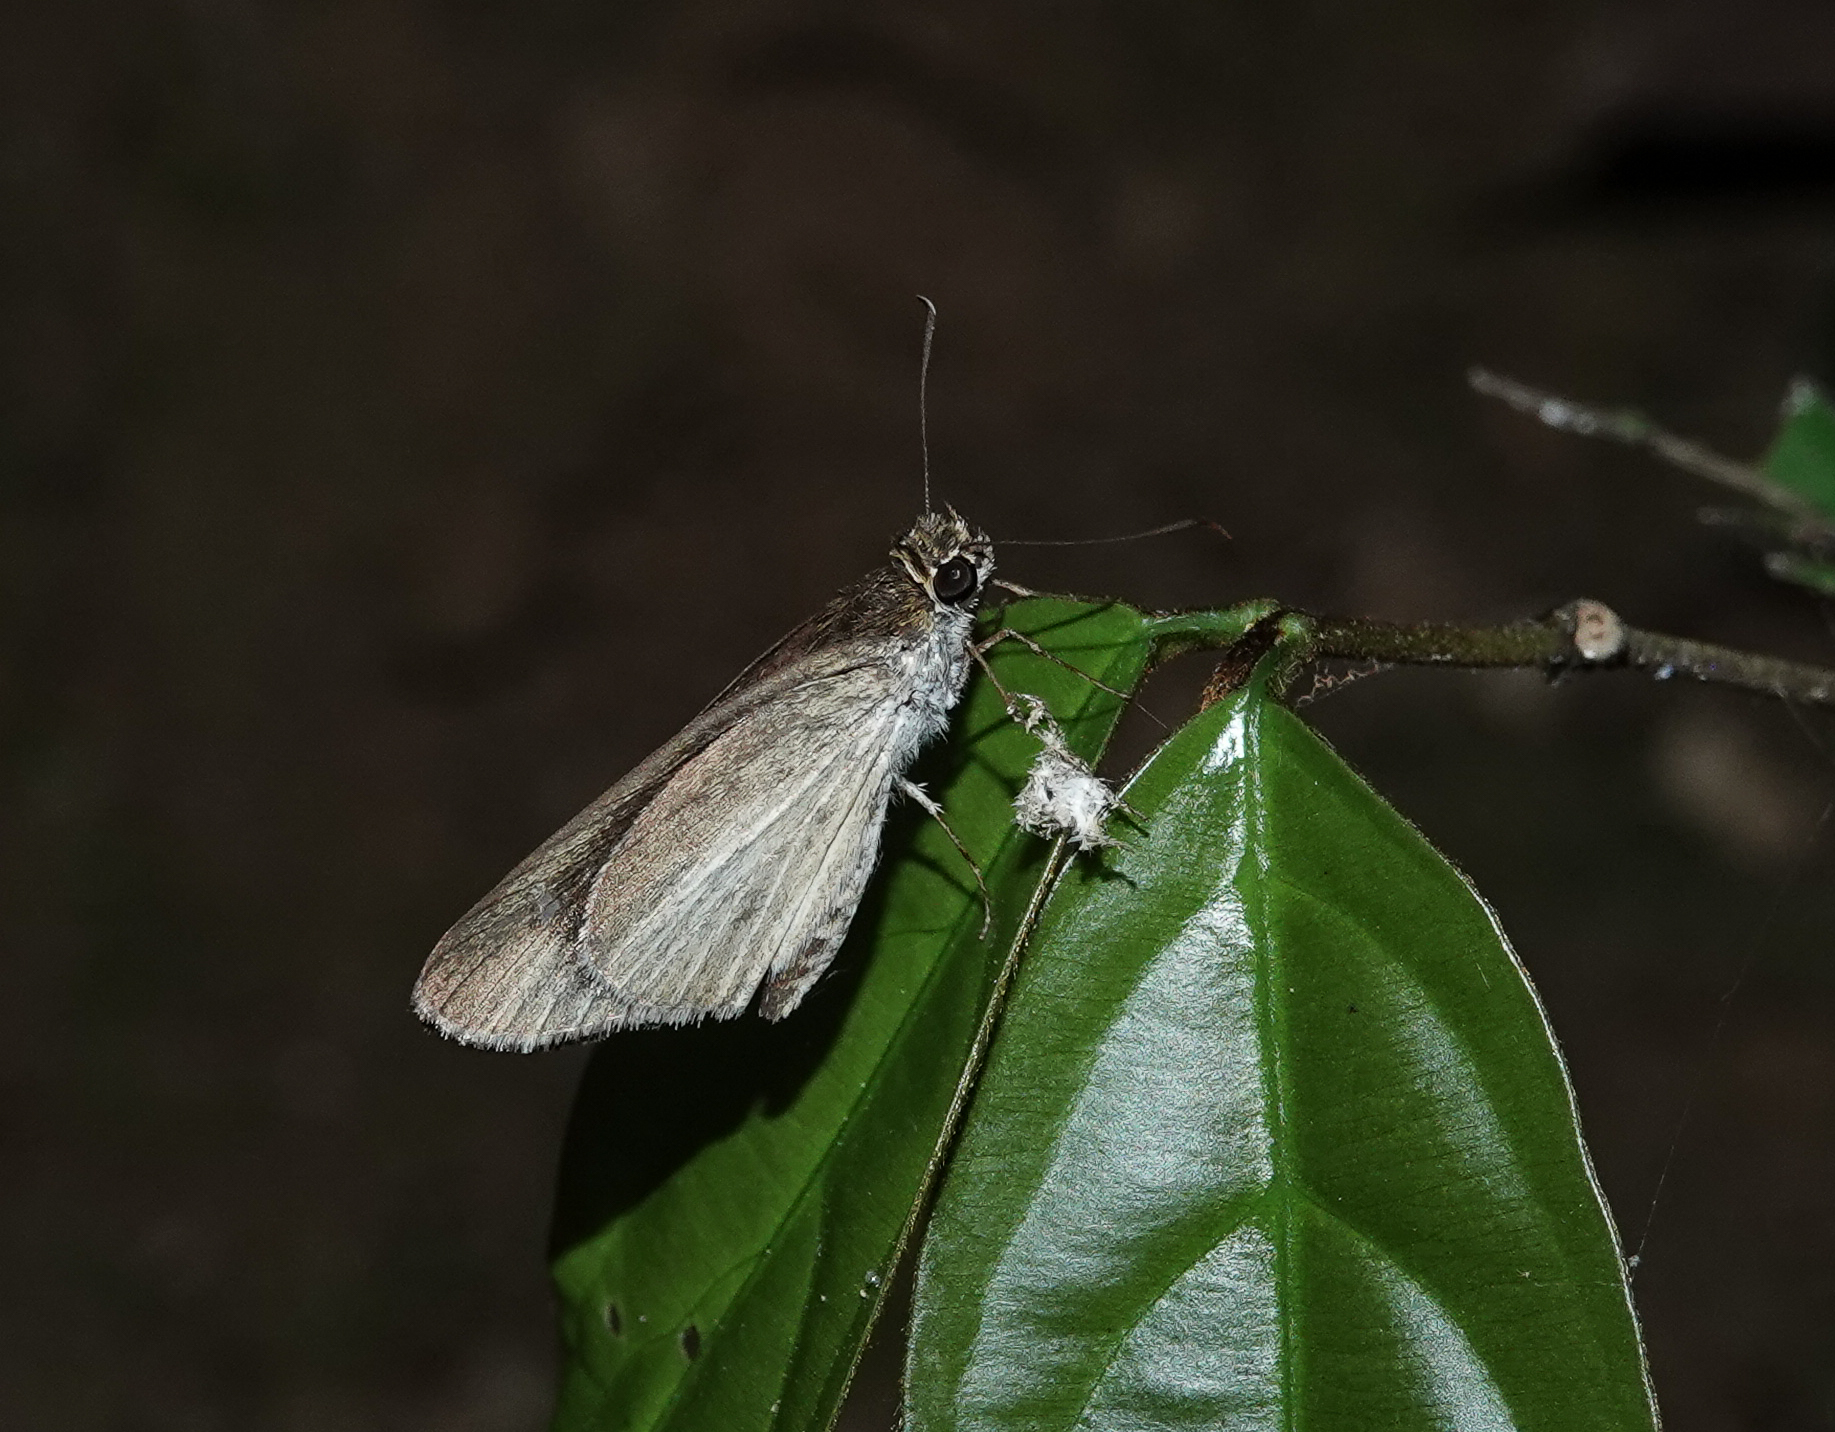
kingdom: Animalia
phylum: Arthropoda
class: Insecta
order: Lepidoptera
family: Hesperiidae
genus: Suada
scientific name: Suada swerga
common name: Grass bob
